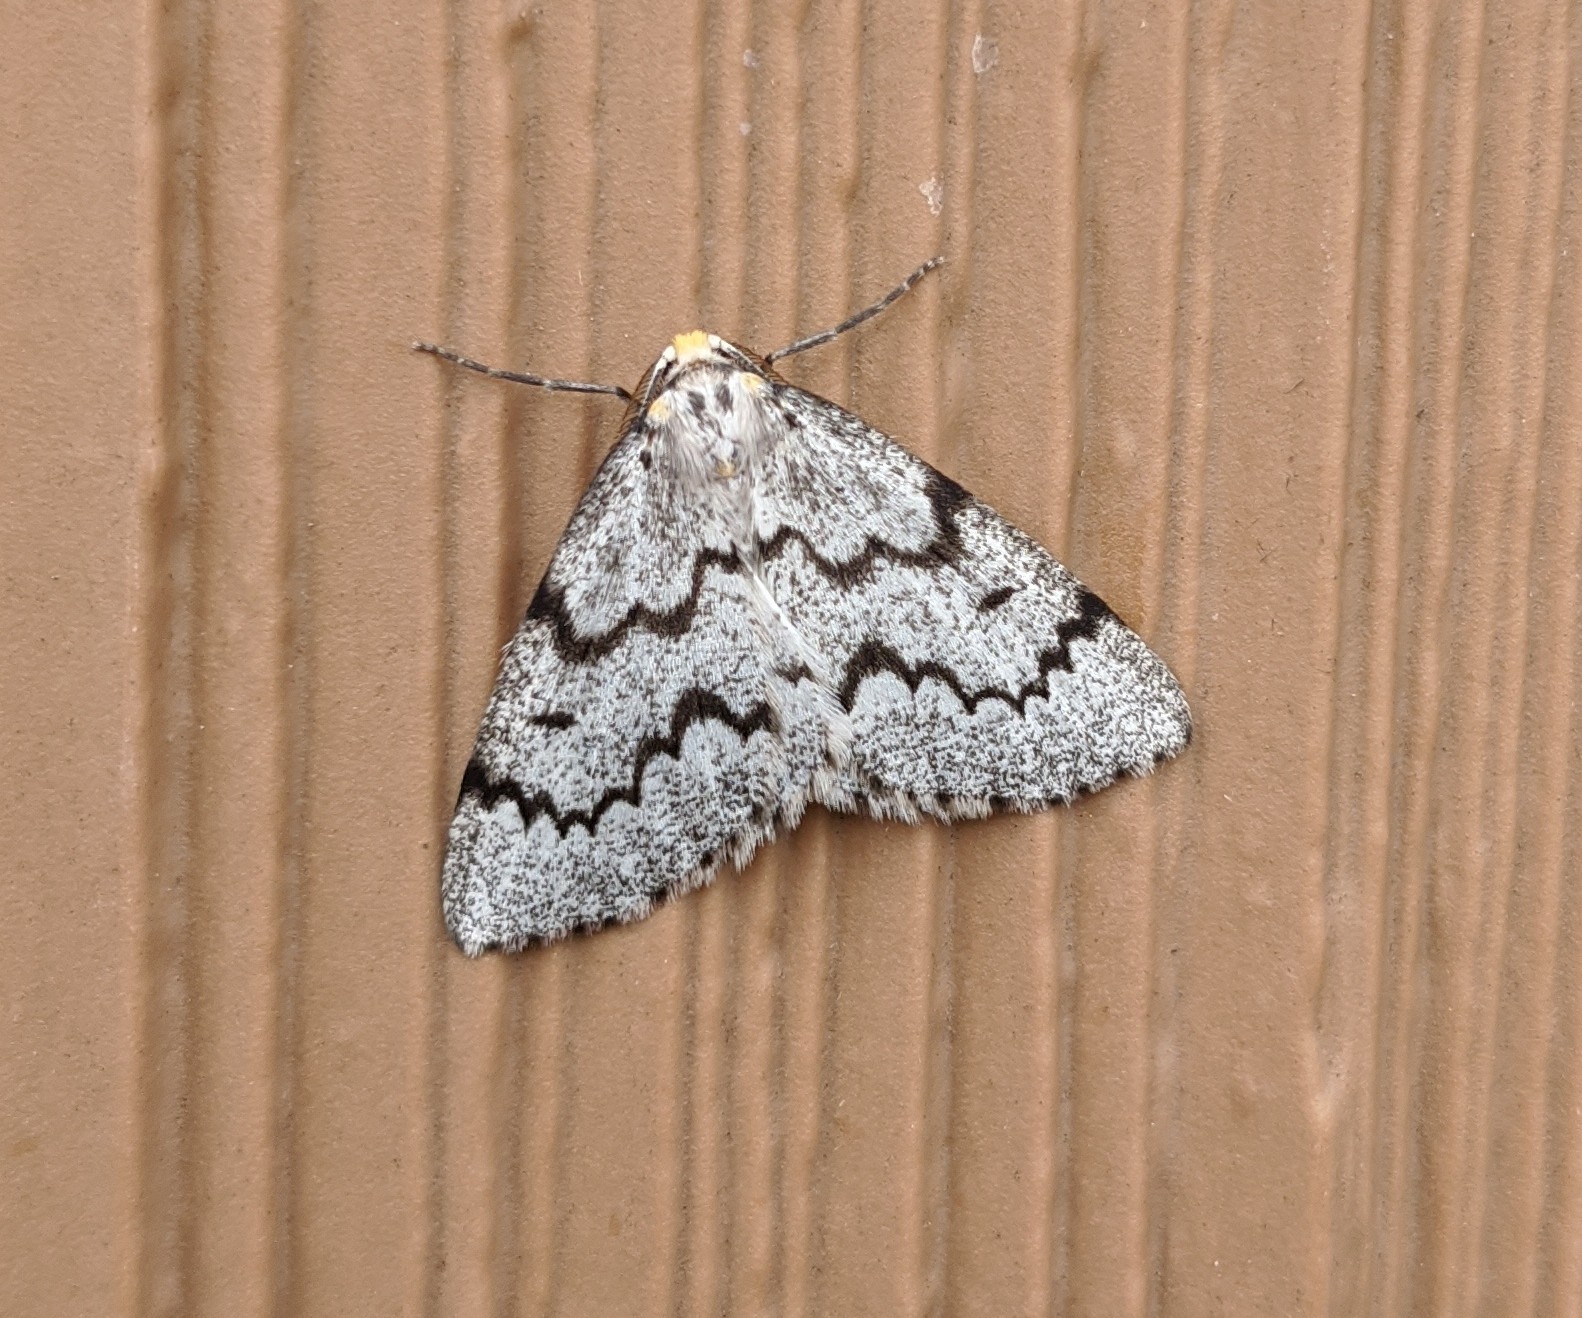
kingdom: Animalia
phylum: Arthropoda
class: Insecta
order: Lepidoptera
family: Geometridae
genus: Nepytia
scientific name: Nepytia canosaria
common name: False hemlock looper
